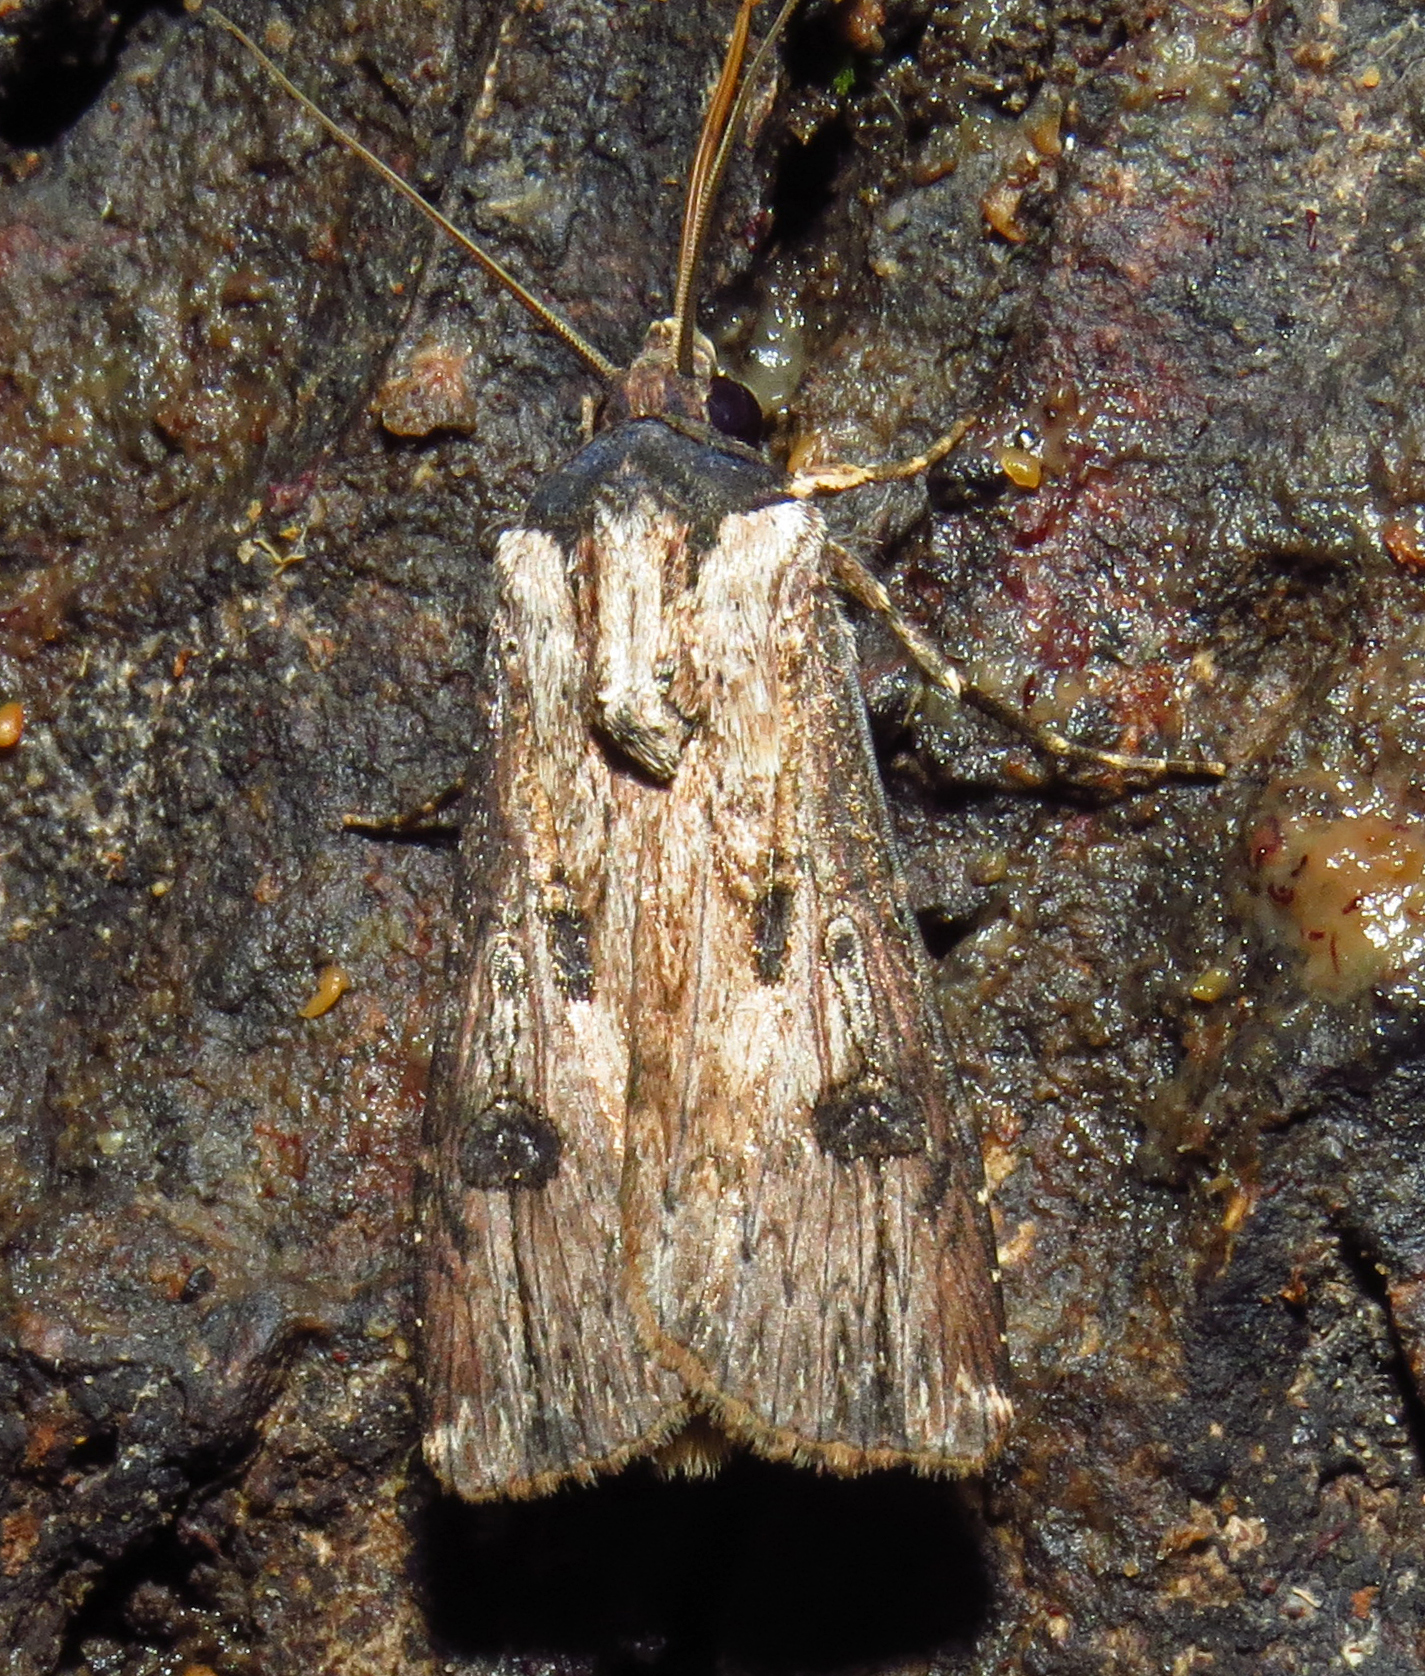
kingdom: Animalia
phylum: Arthropoda
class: Insecta
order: Lepidoptera
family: Noctuidae
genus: Agrotis
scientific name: Agrotis malefida
